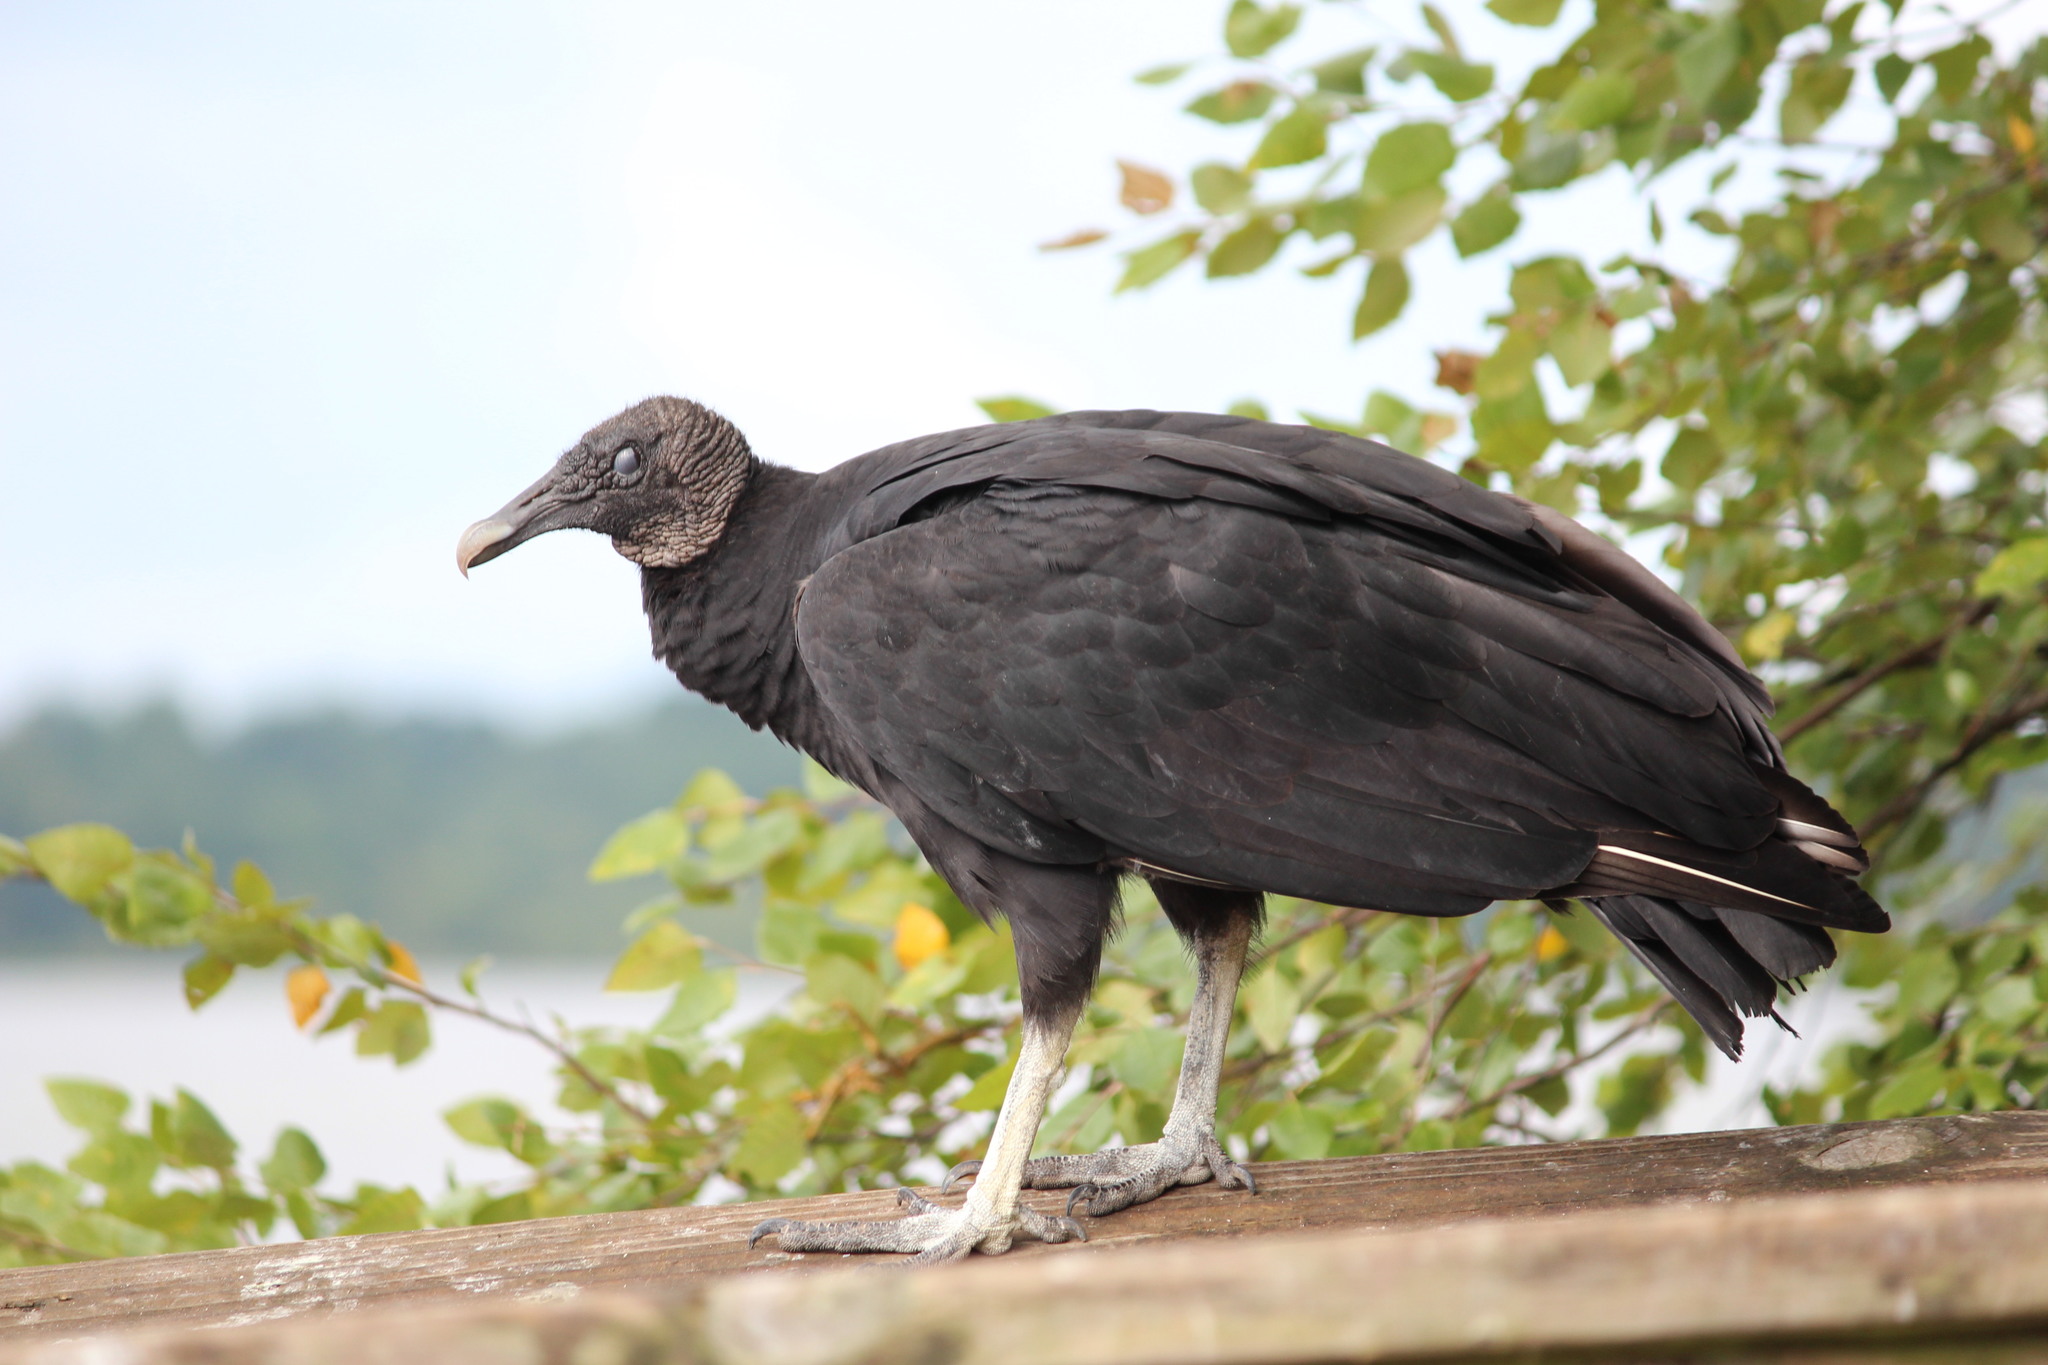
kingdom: Animalia
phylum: Chordata
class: Aves
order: Accipitriformes
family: Cathartidae
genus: Coragyps
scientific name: Coragyps atratus
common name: Black vulture
